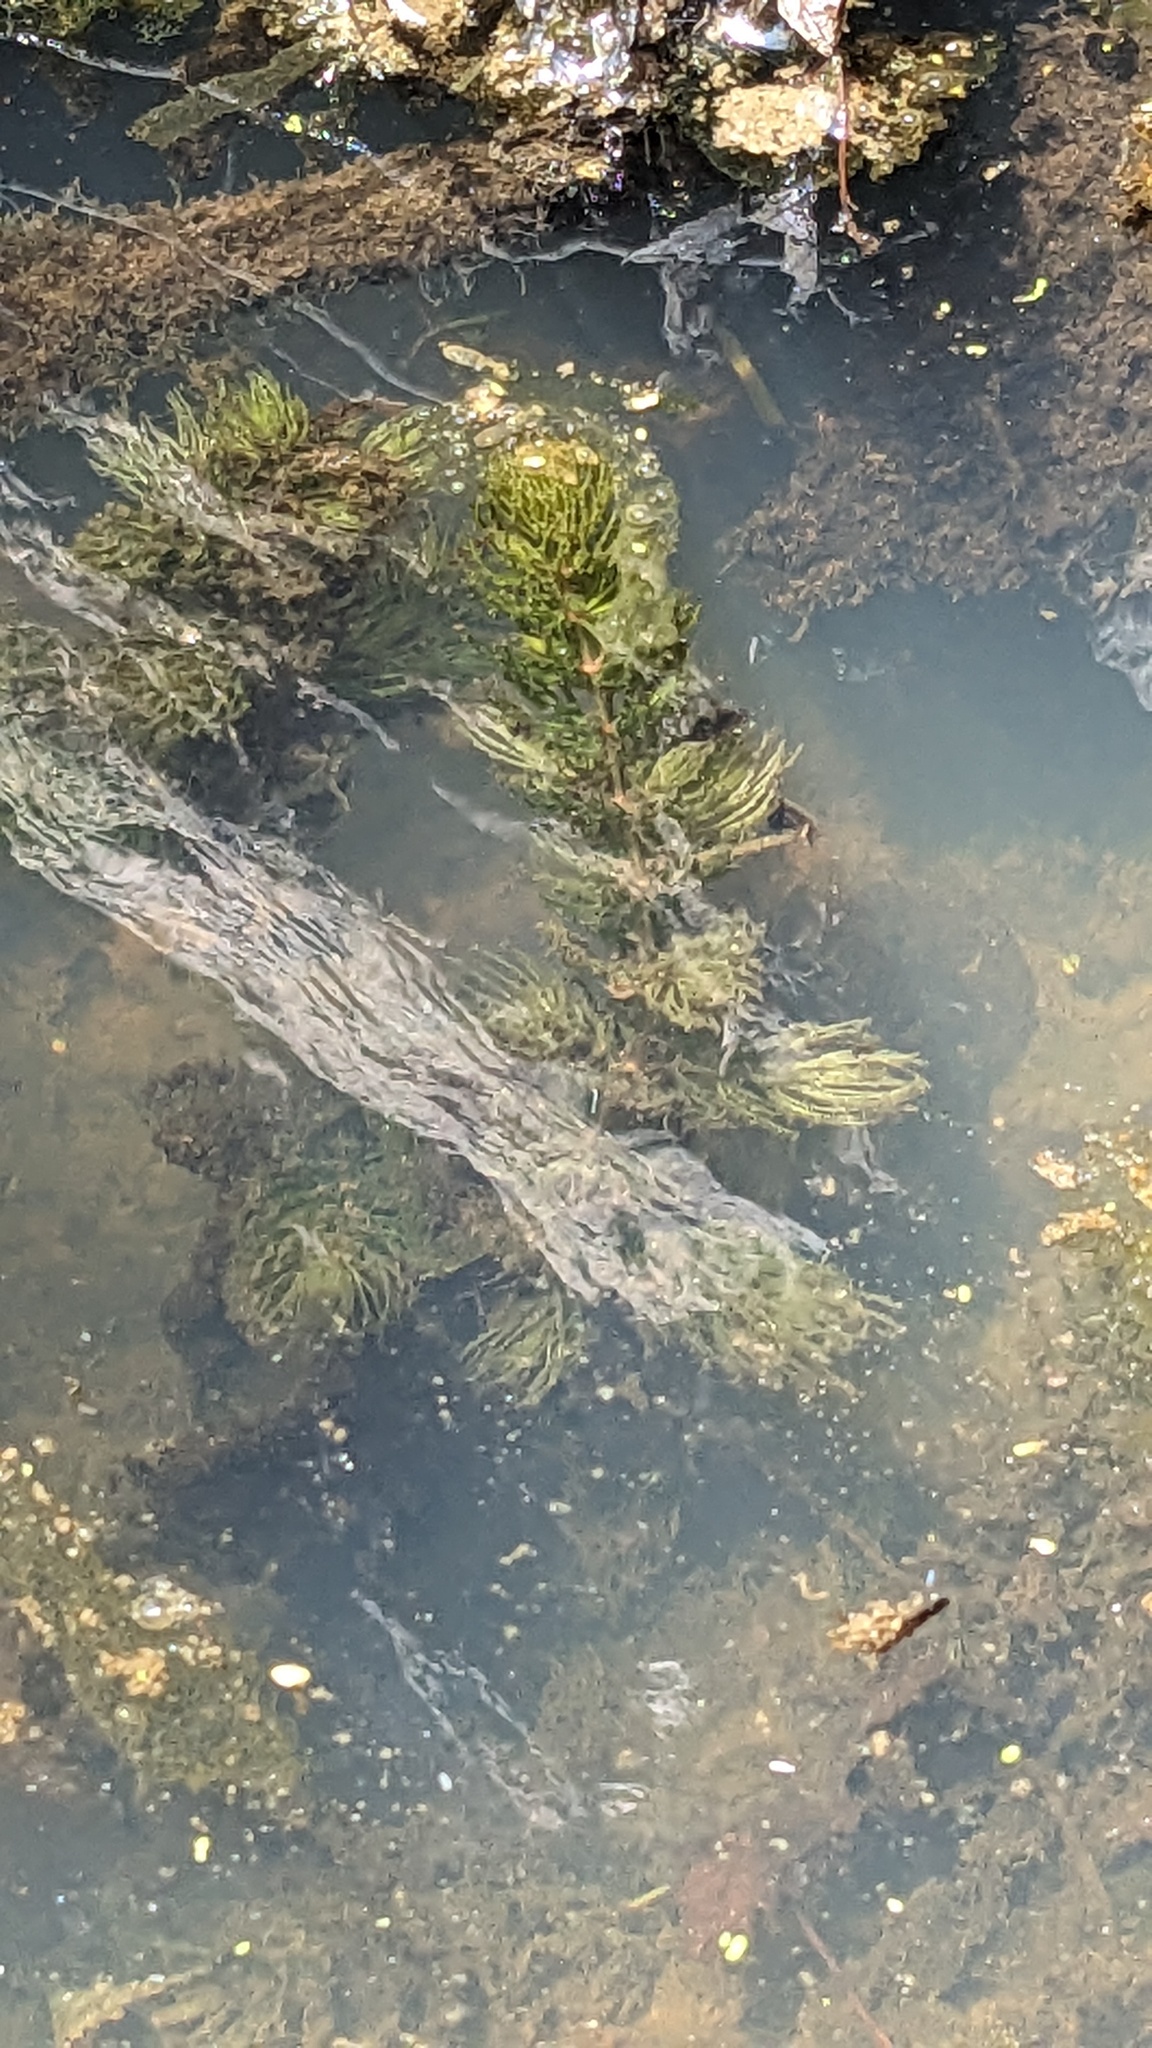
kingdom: Plantae
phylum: Tracheophyta
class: Magnoliopsida
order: Ceratophyllales
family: Ceratophyllaceae
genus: Ceratophyllum
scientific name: Ceratophyllum demersum
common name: Rigid hornwort
